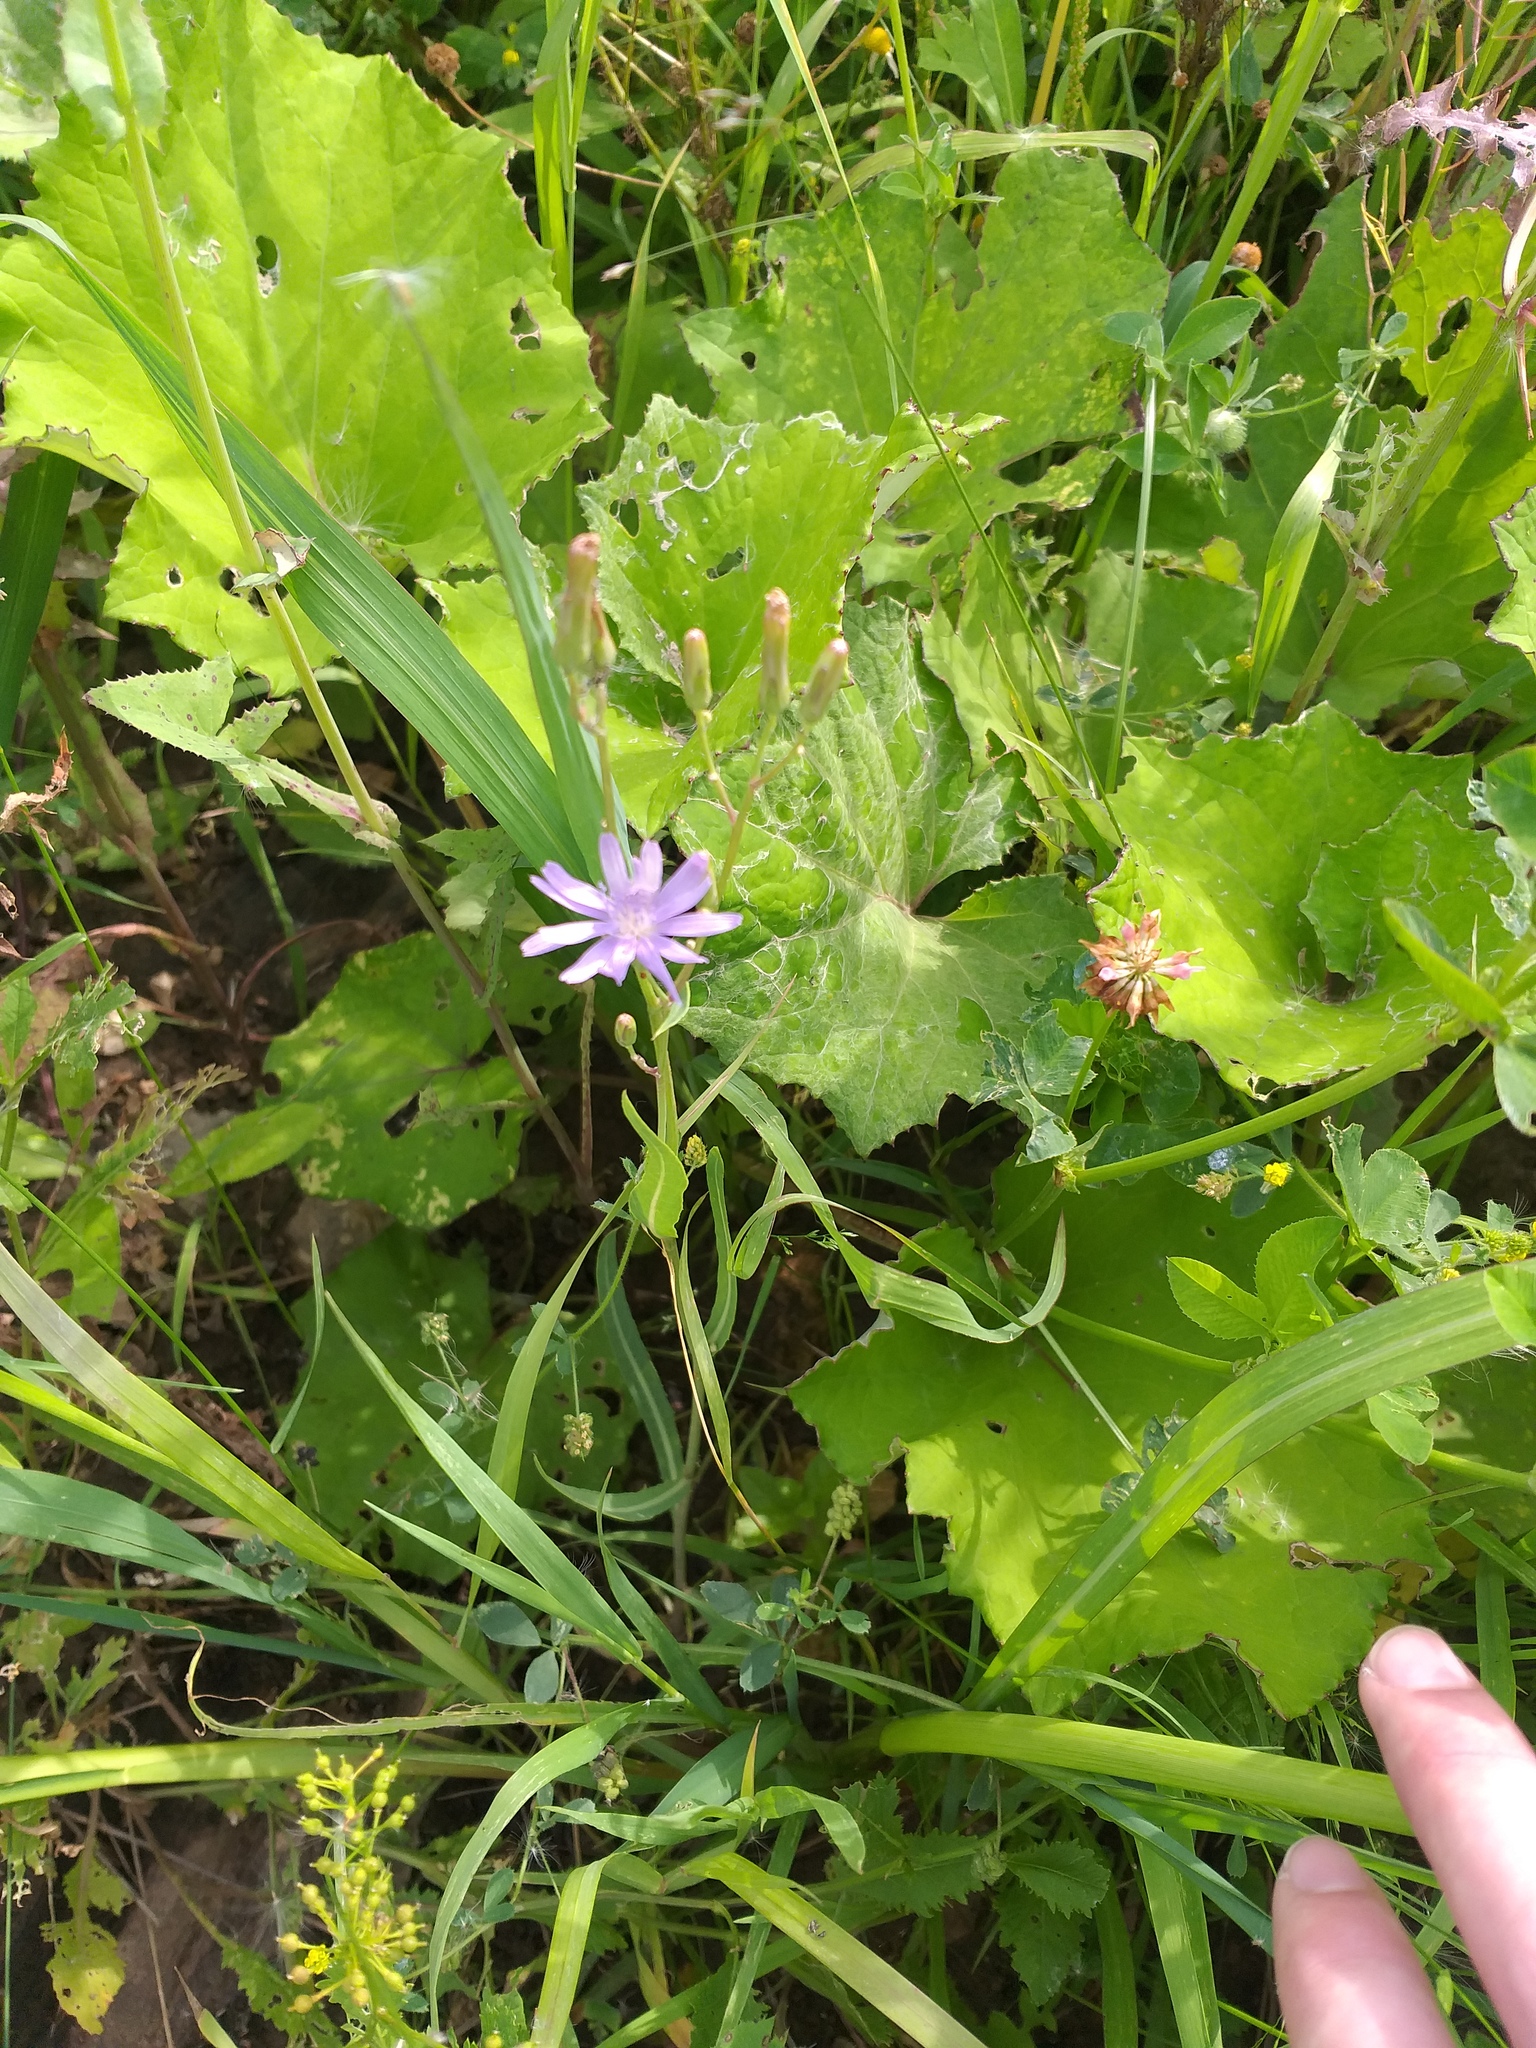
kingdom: Plantae
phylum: Tracheophyta
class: Magnoliopsida
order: Asterales
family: Asteraceae
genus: Lactuca
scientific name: Lactuca tatarica
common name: Blue lettuce
